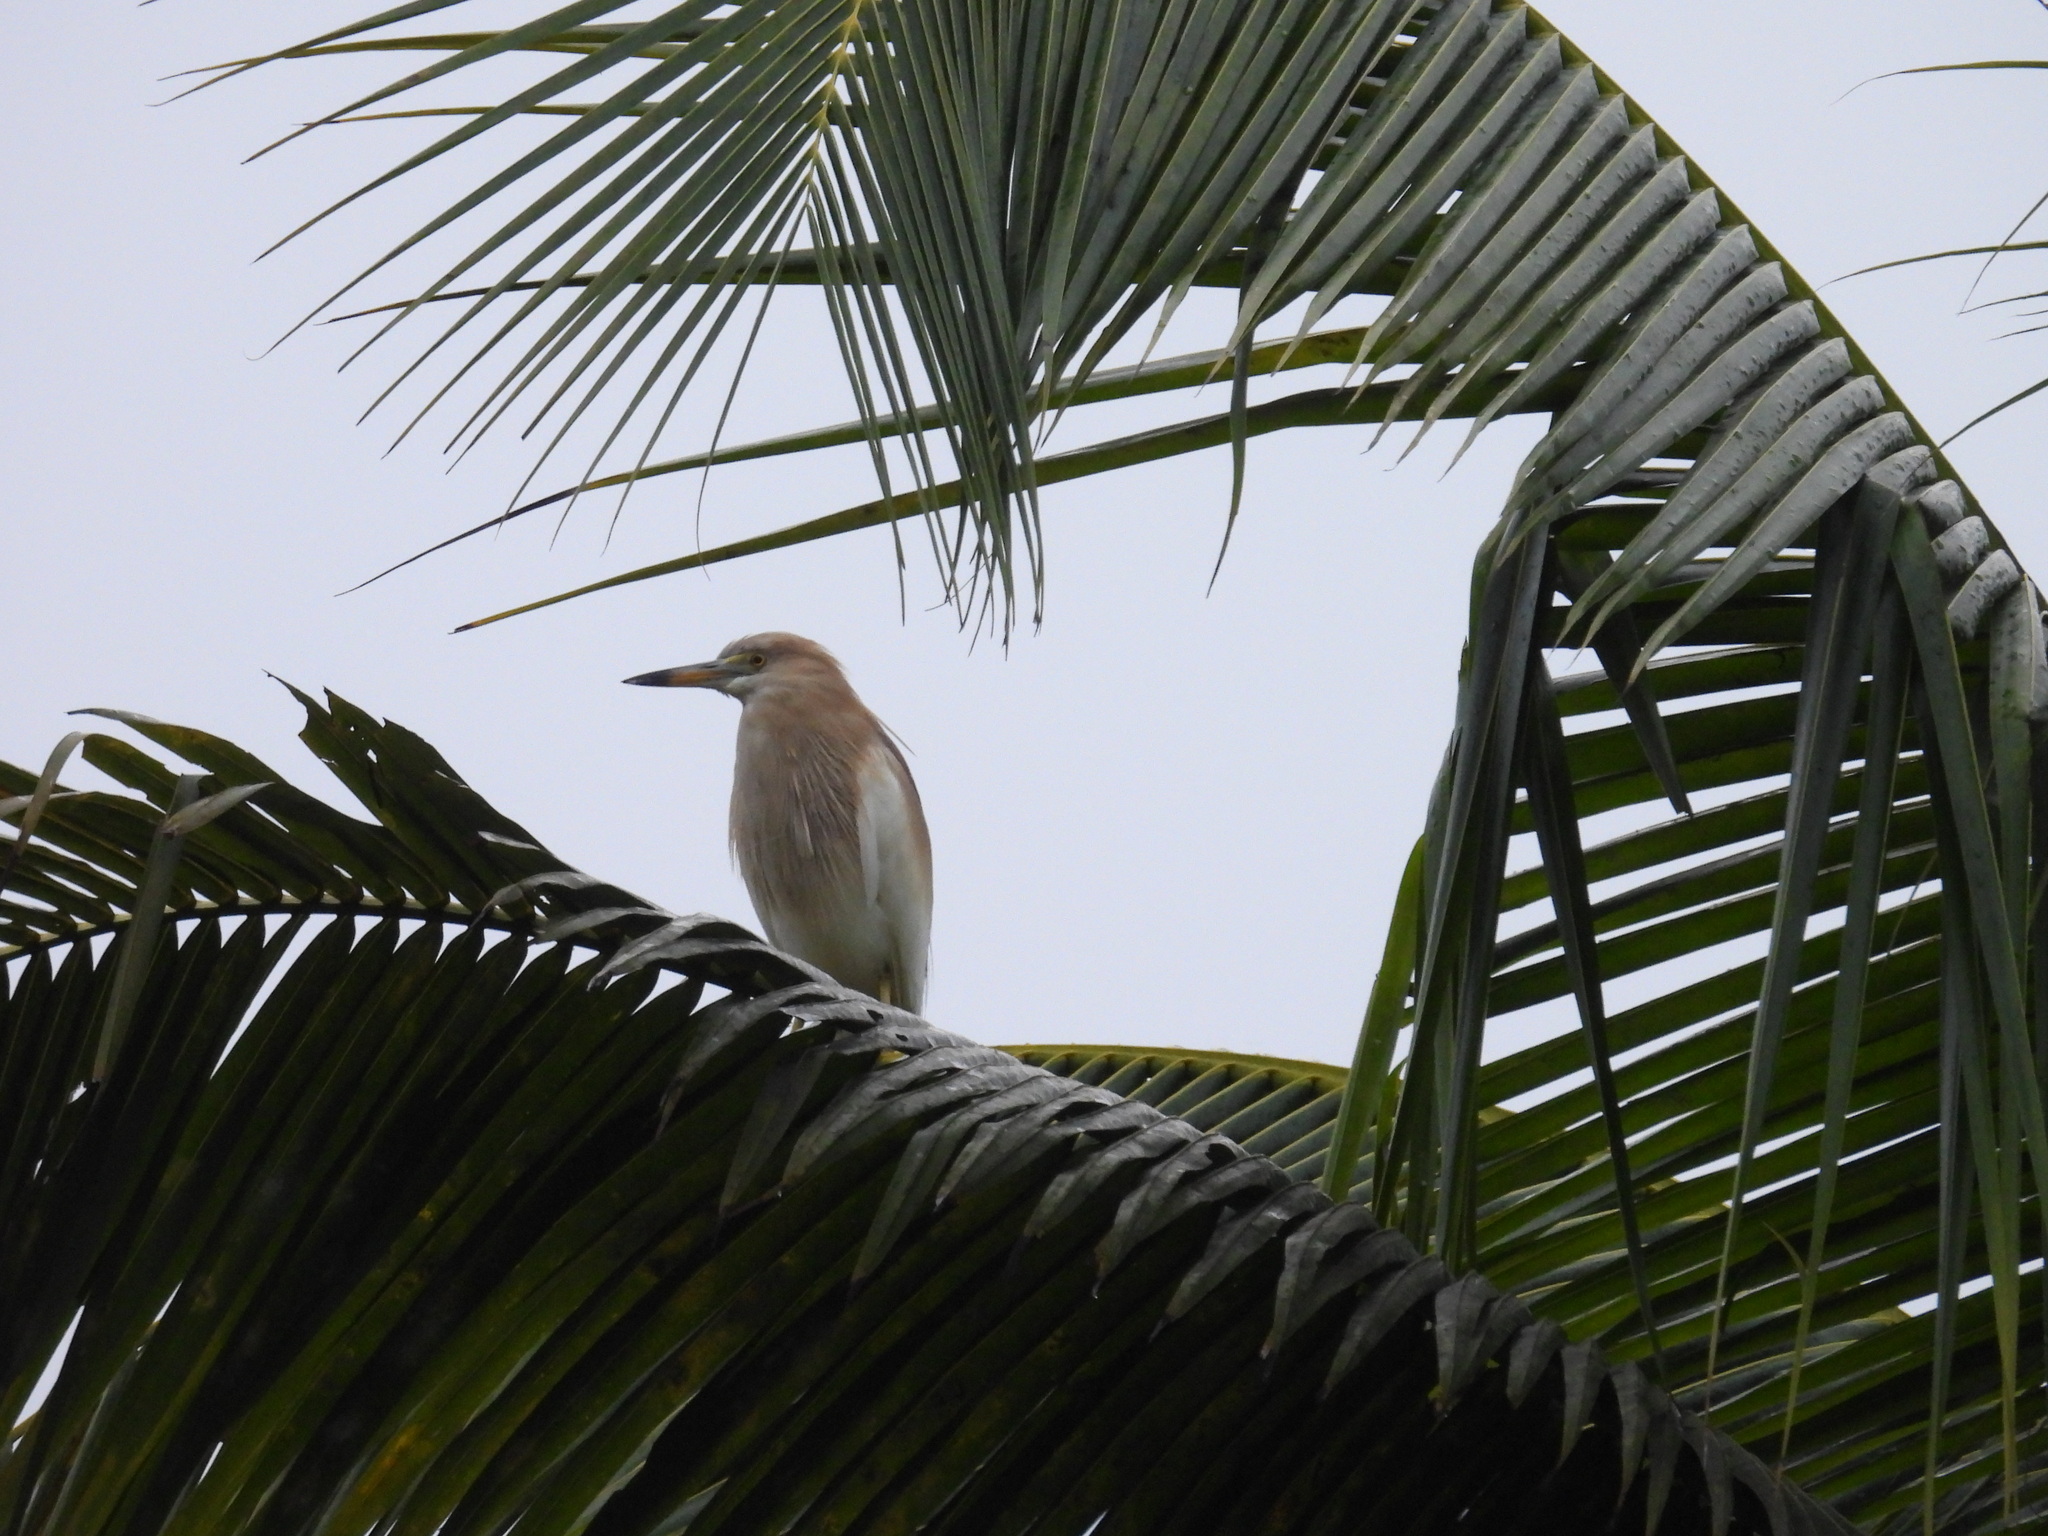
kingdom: Animalia
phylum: Chordata
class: Aves
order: Pelecaniformes
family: Ardeidae
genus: Ardeola
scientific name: Ardeola grayii
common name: Indian pond heron
